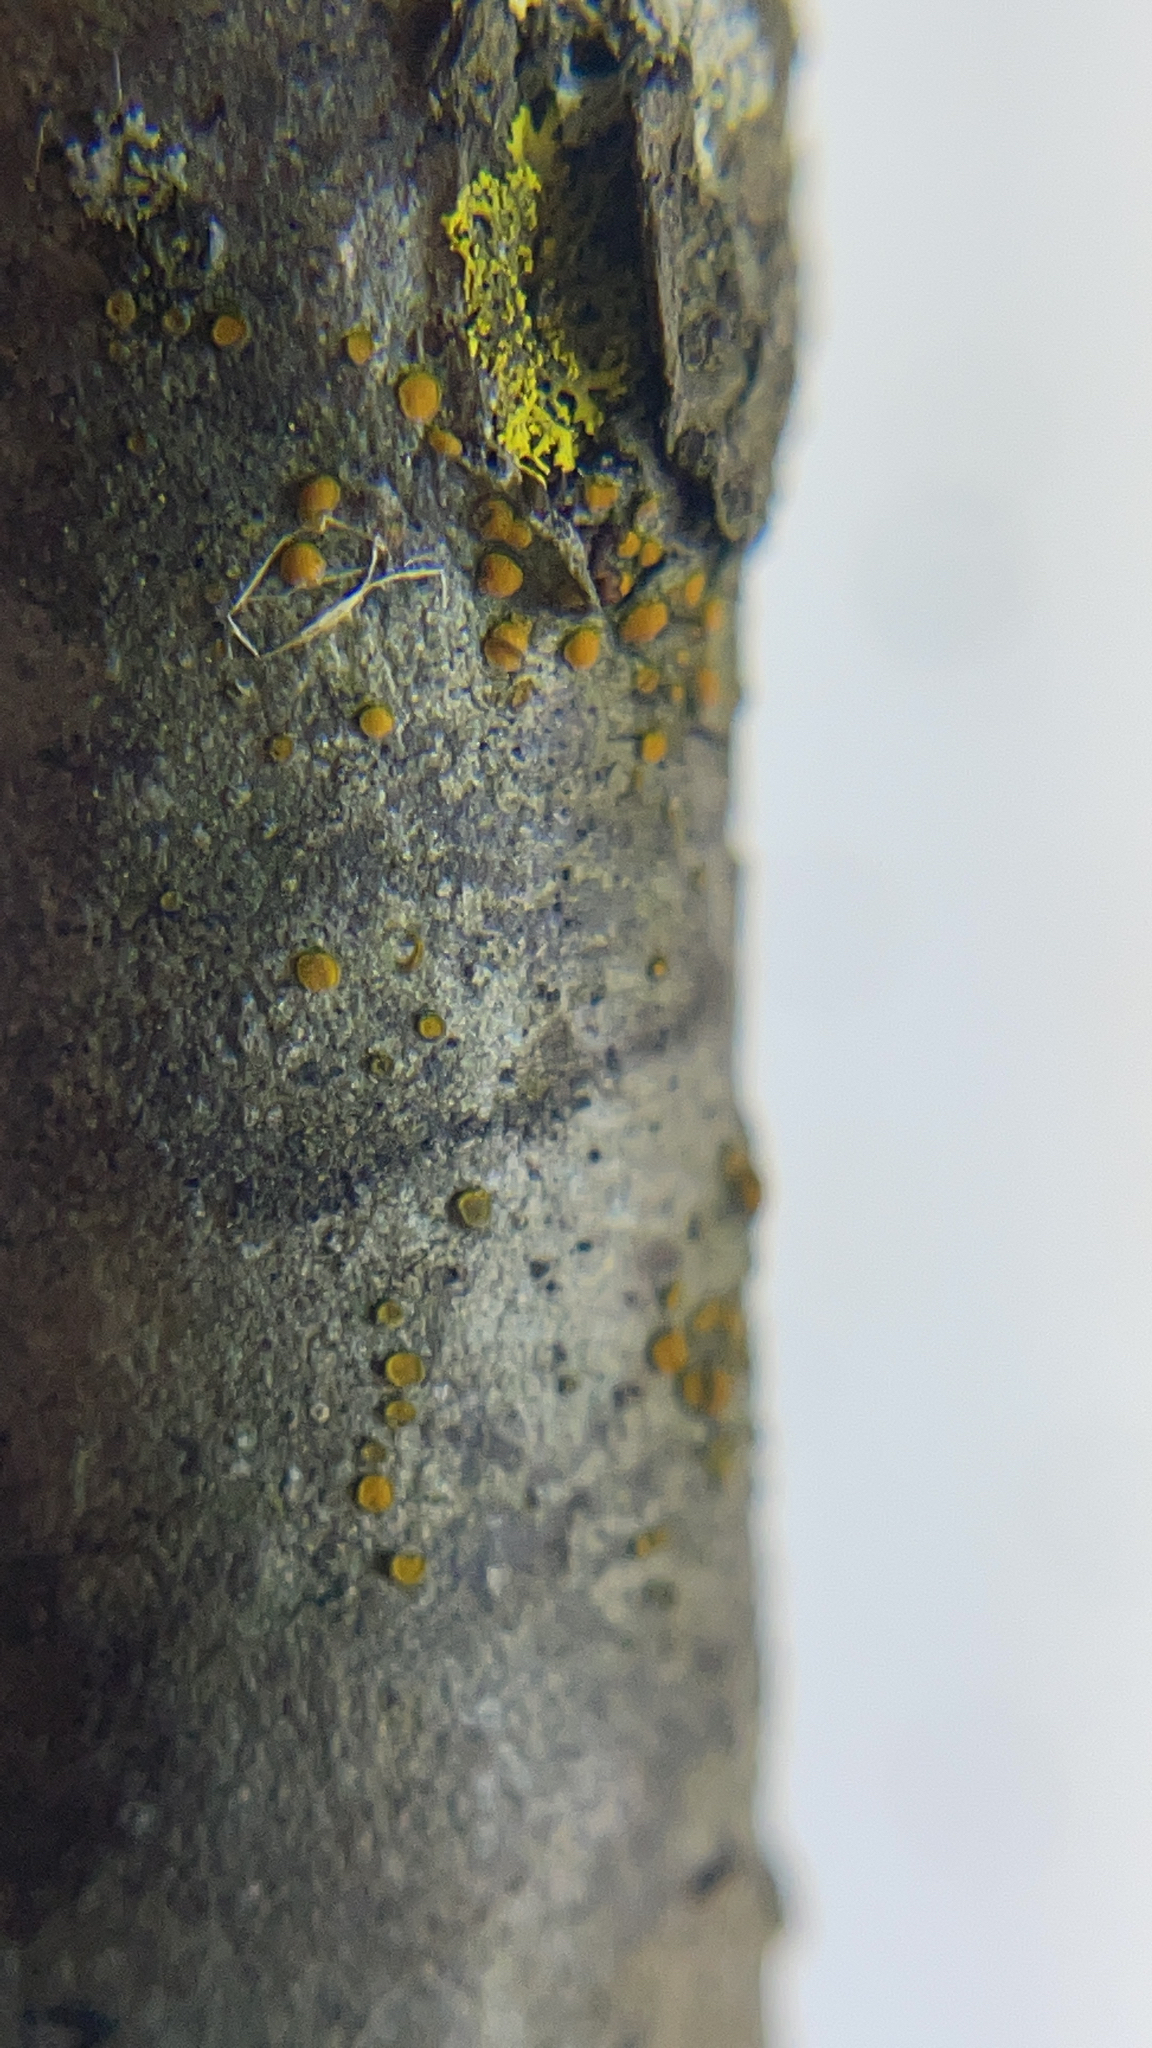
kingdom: Fungi
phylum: Ascomycota
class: Lecanoromycetes
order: Teloschistales
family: Teloschistaceae
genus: Caloplaca
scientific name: Caloplaca cerina
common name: Gray-rimmed firedot lichen
